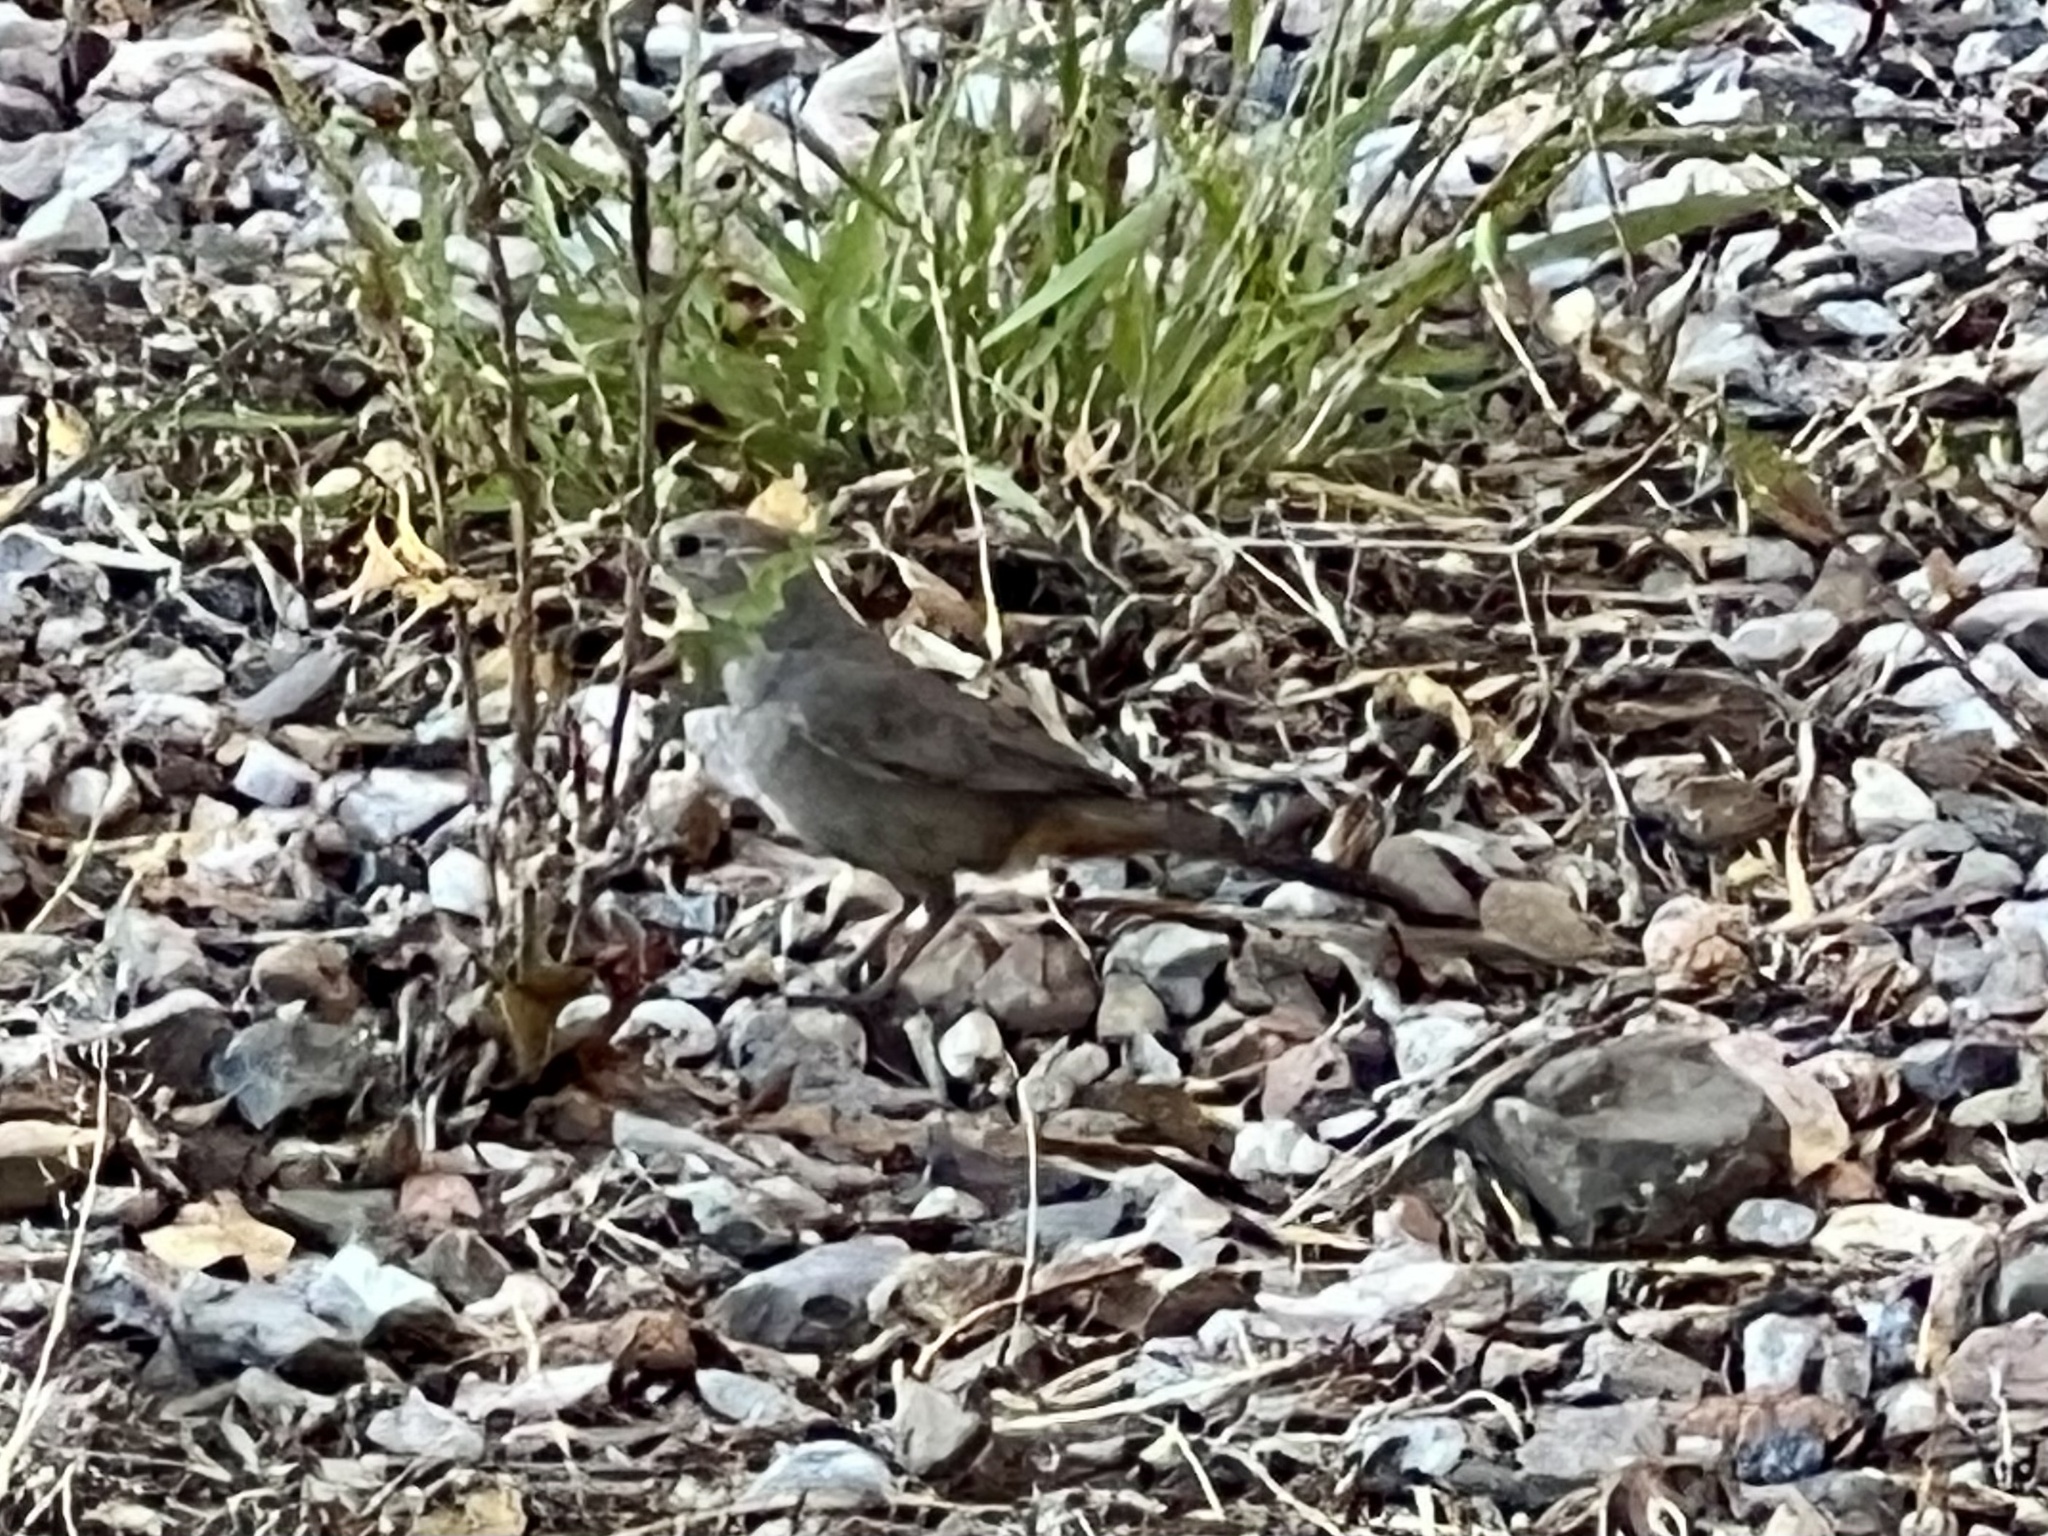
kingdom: Animalia
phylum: Chordata
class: Aves
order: Passeriformes
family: Passerellidae
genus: Melozone
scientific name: Melozone fusca
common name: Canyon towhee
